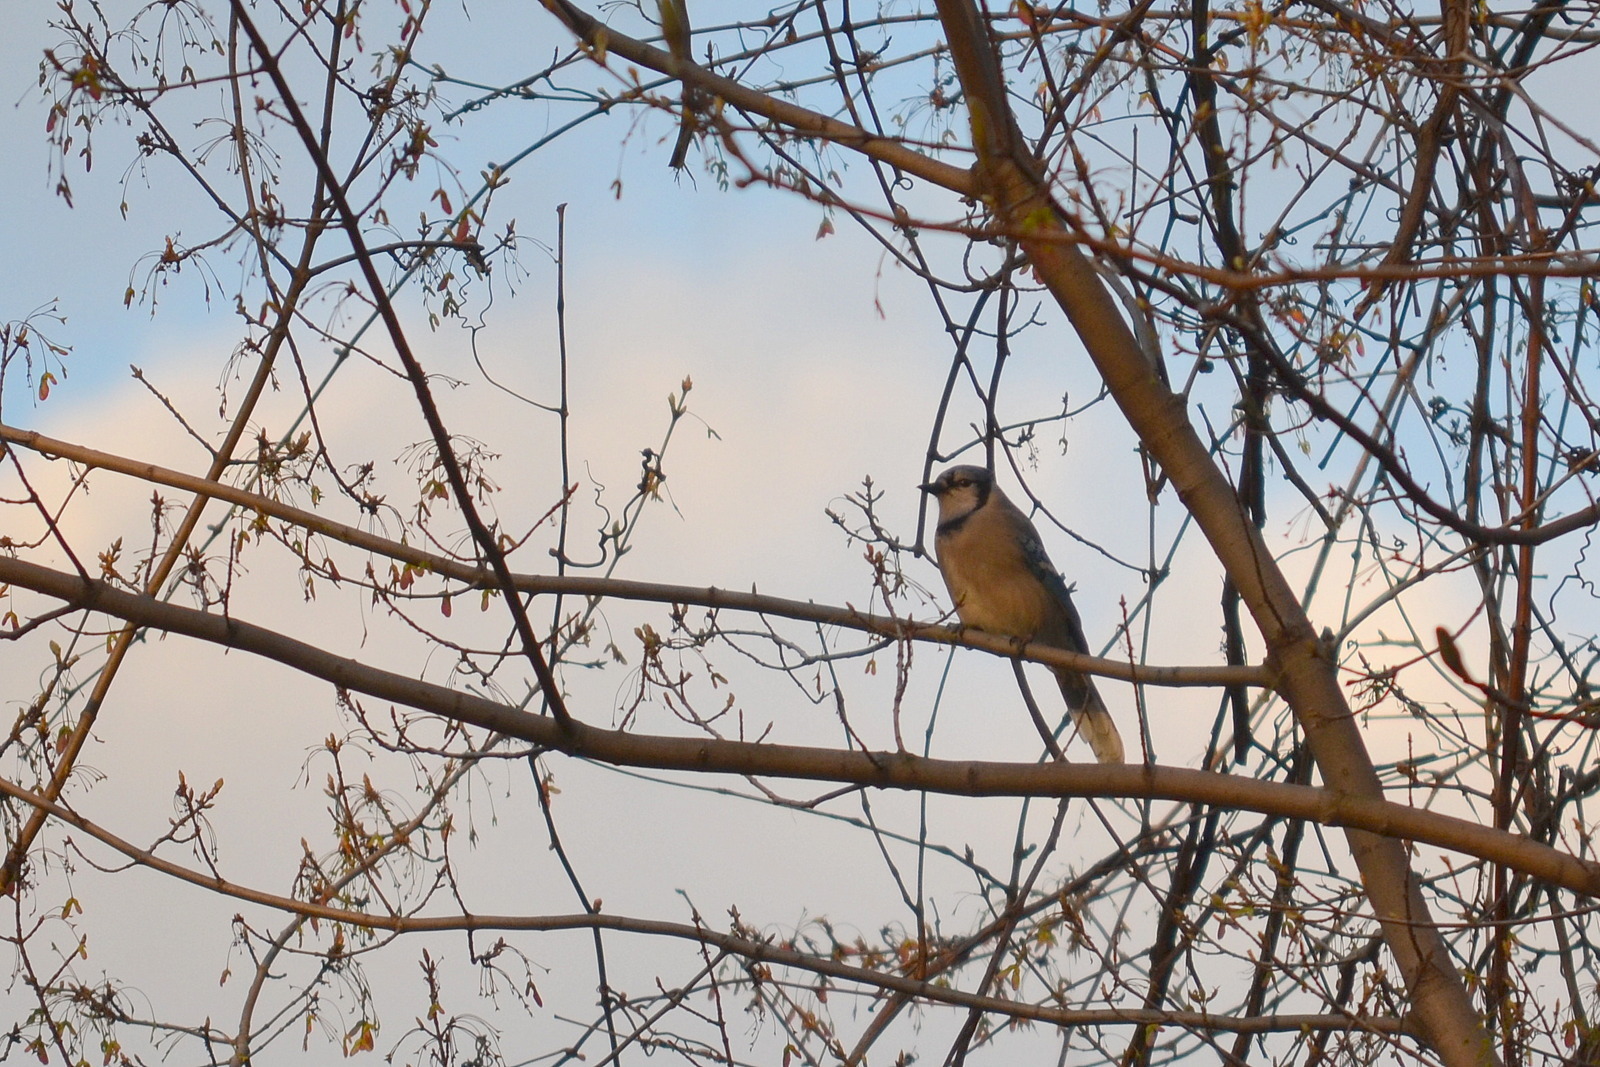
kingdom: Animalia
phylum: Chordata
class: Aves
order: Passeriformes
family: Corvidae
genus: Cyanocitta
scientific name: Cyanocitta cristata
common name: Blue jay
